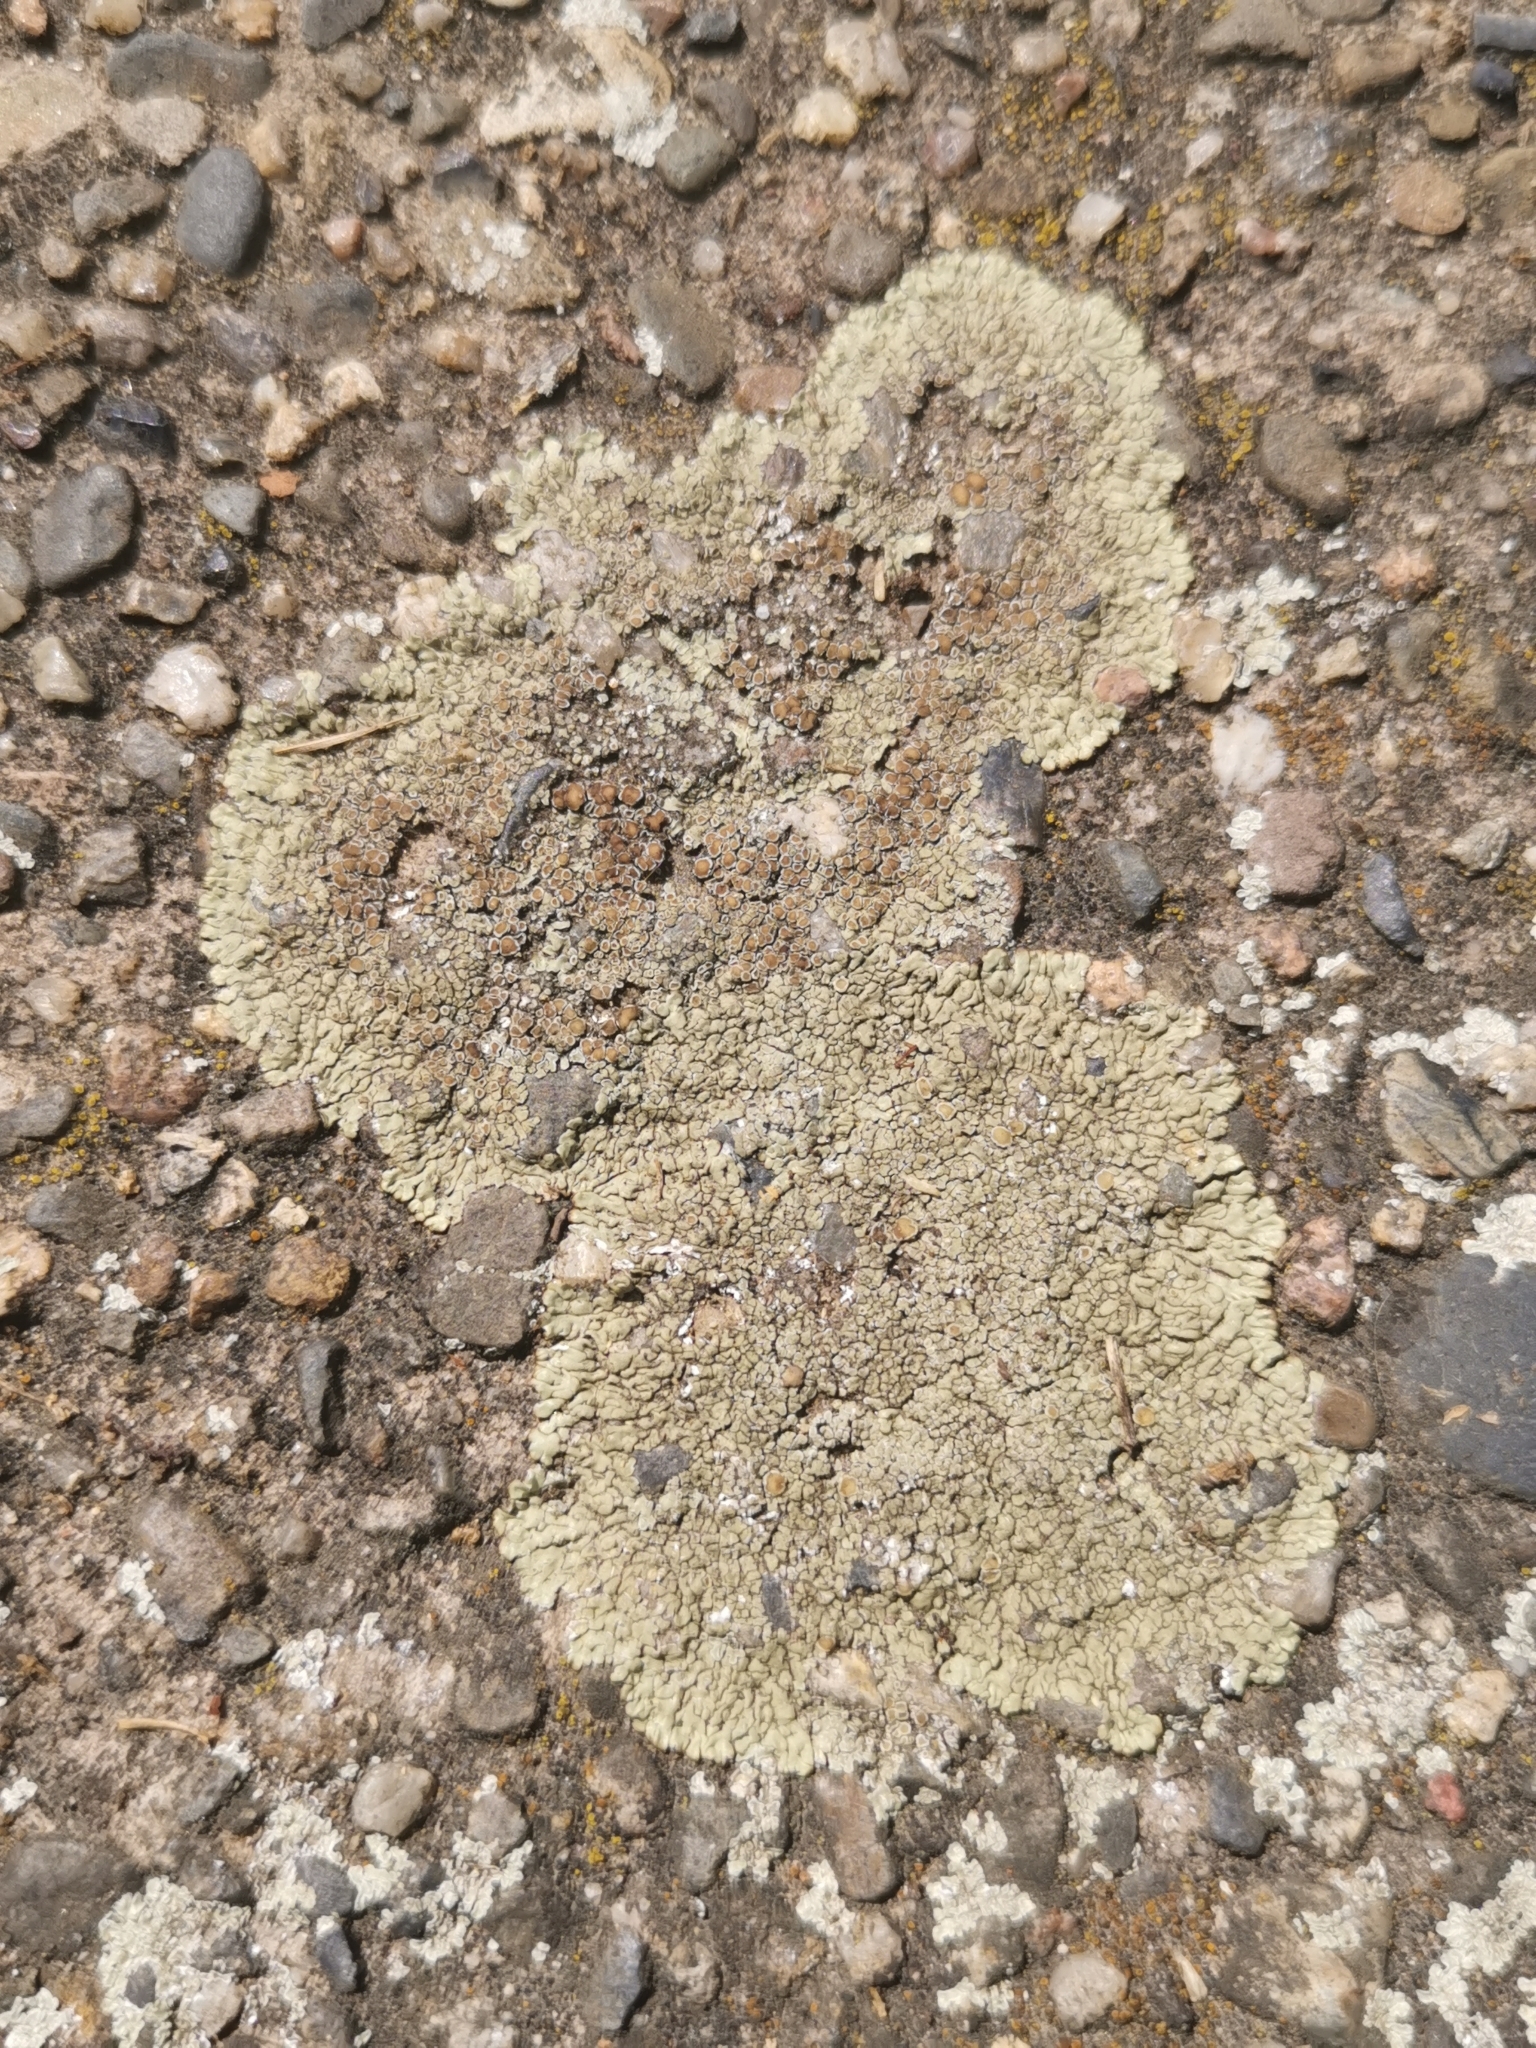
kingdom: Fungi
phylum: Ascomycota
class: Lecanoromycetes
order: Lecanorales
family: Lecanoraceae
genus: Protoparmeliopsis
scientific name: Protoparmeliopsis muralis
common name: Stonewall rim lichen
